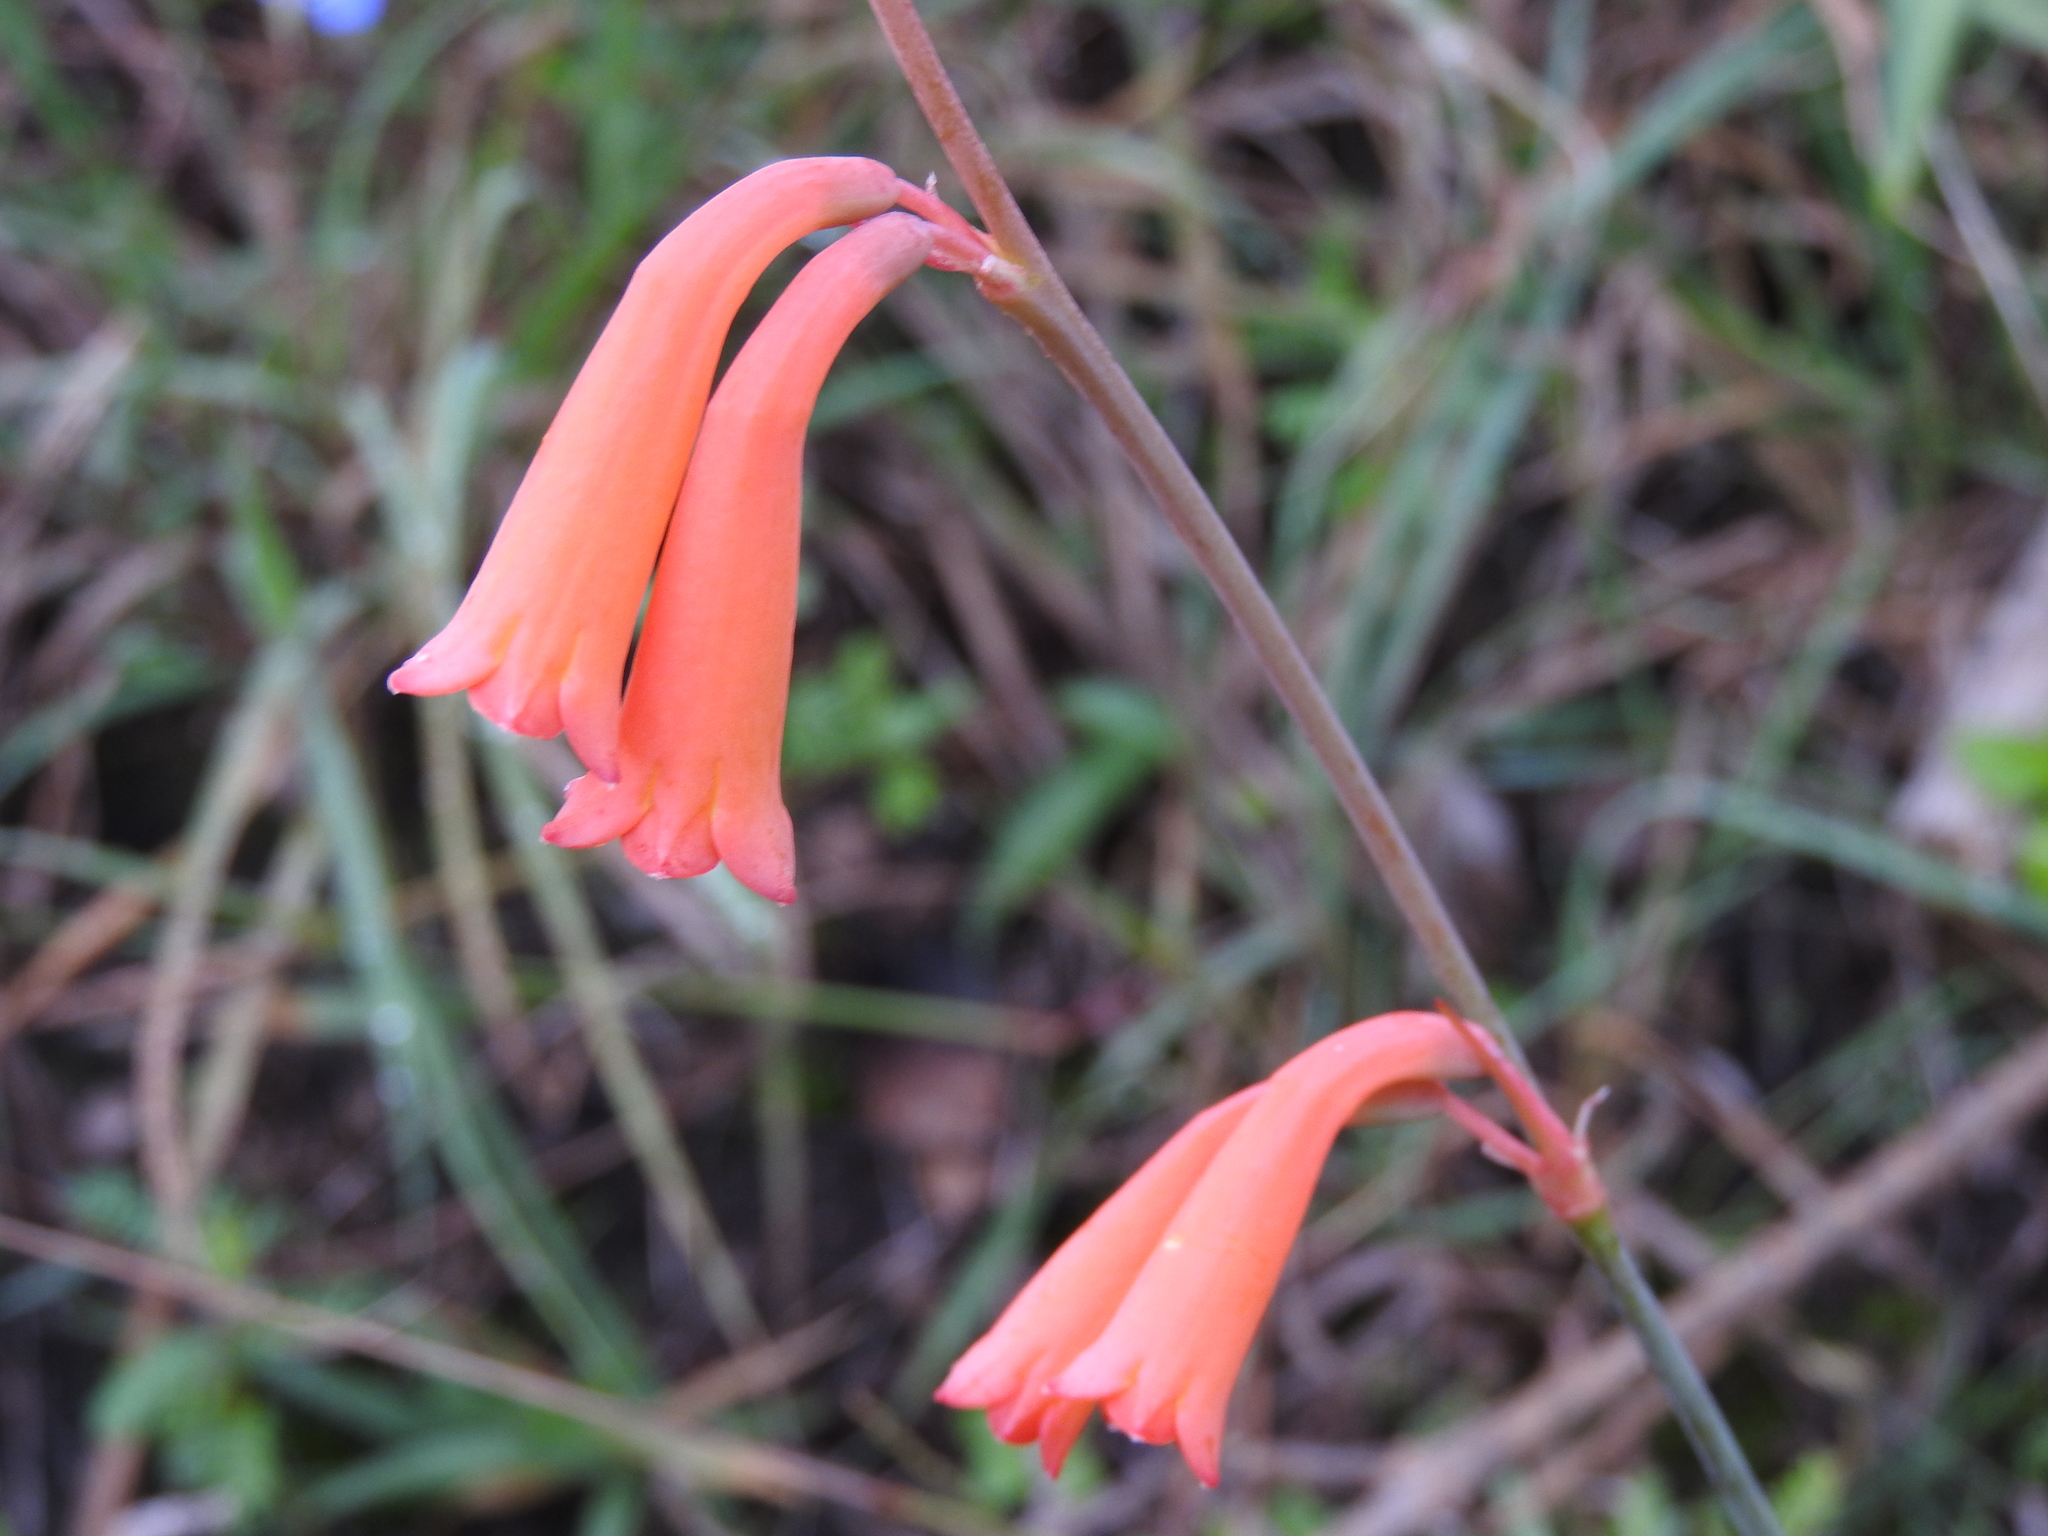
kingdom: Plantae
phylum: Tracheophyta
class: Liliopsida
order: Asparagales
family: Asparagaceae
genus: Agave
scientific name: Agave coetocapnia
